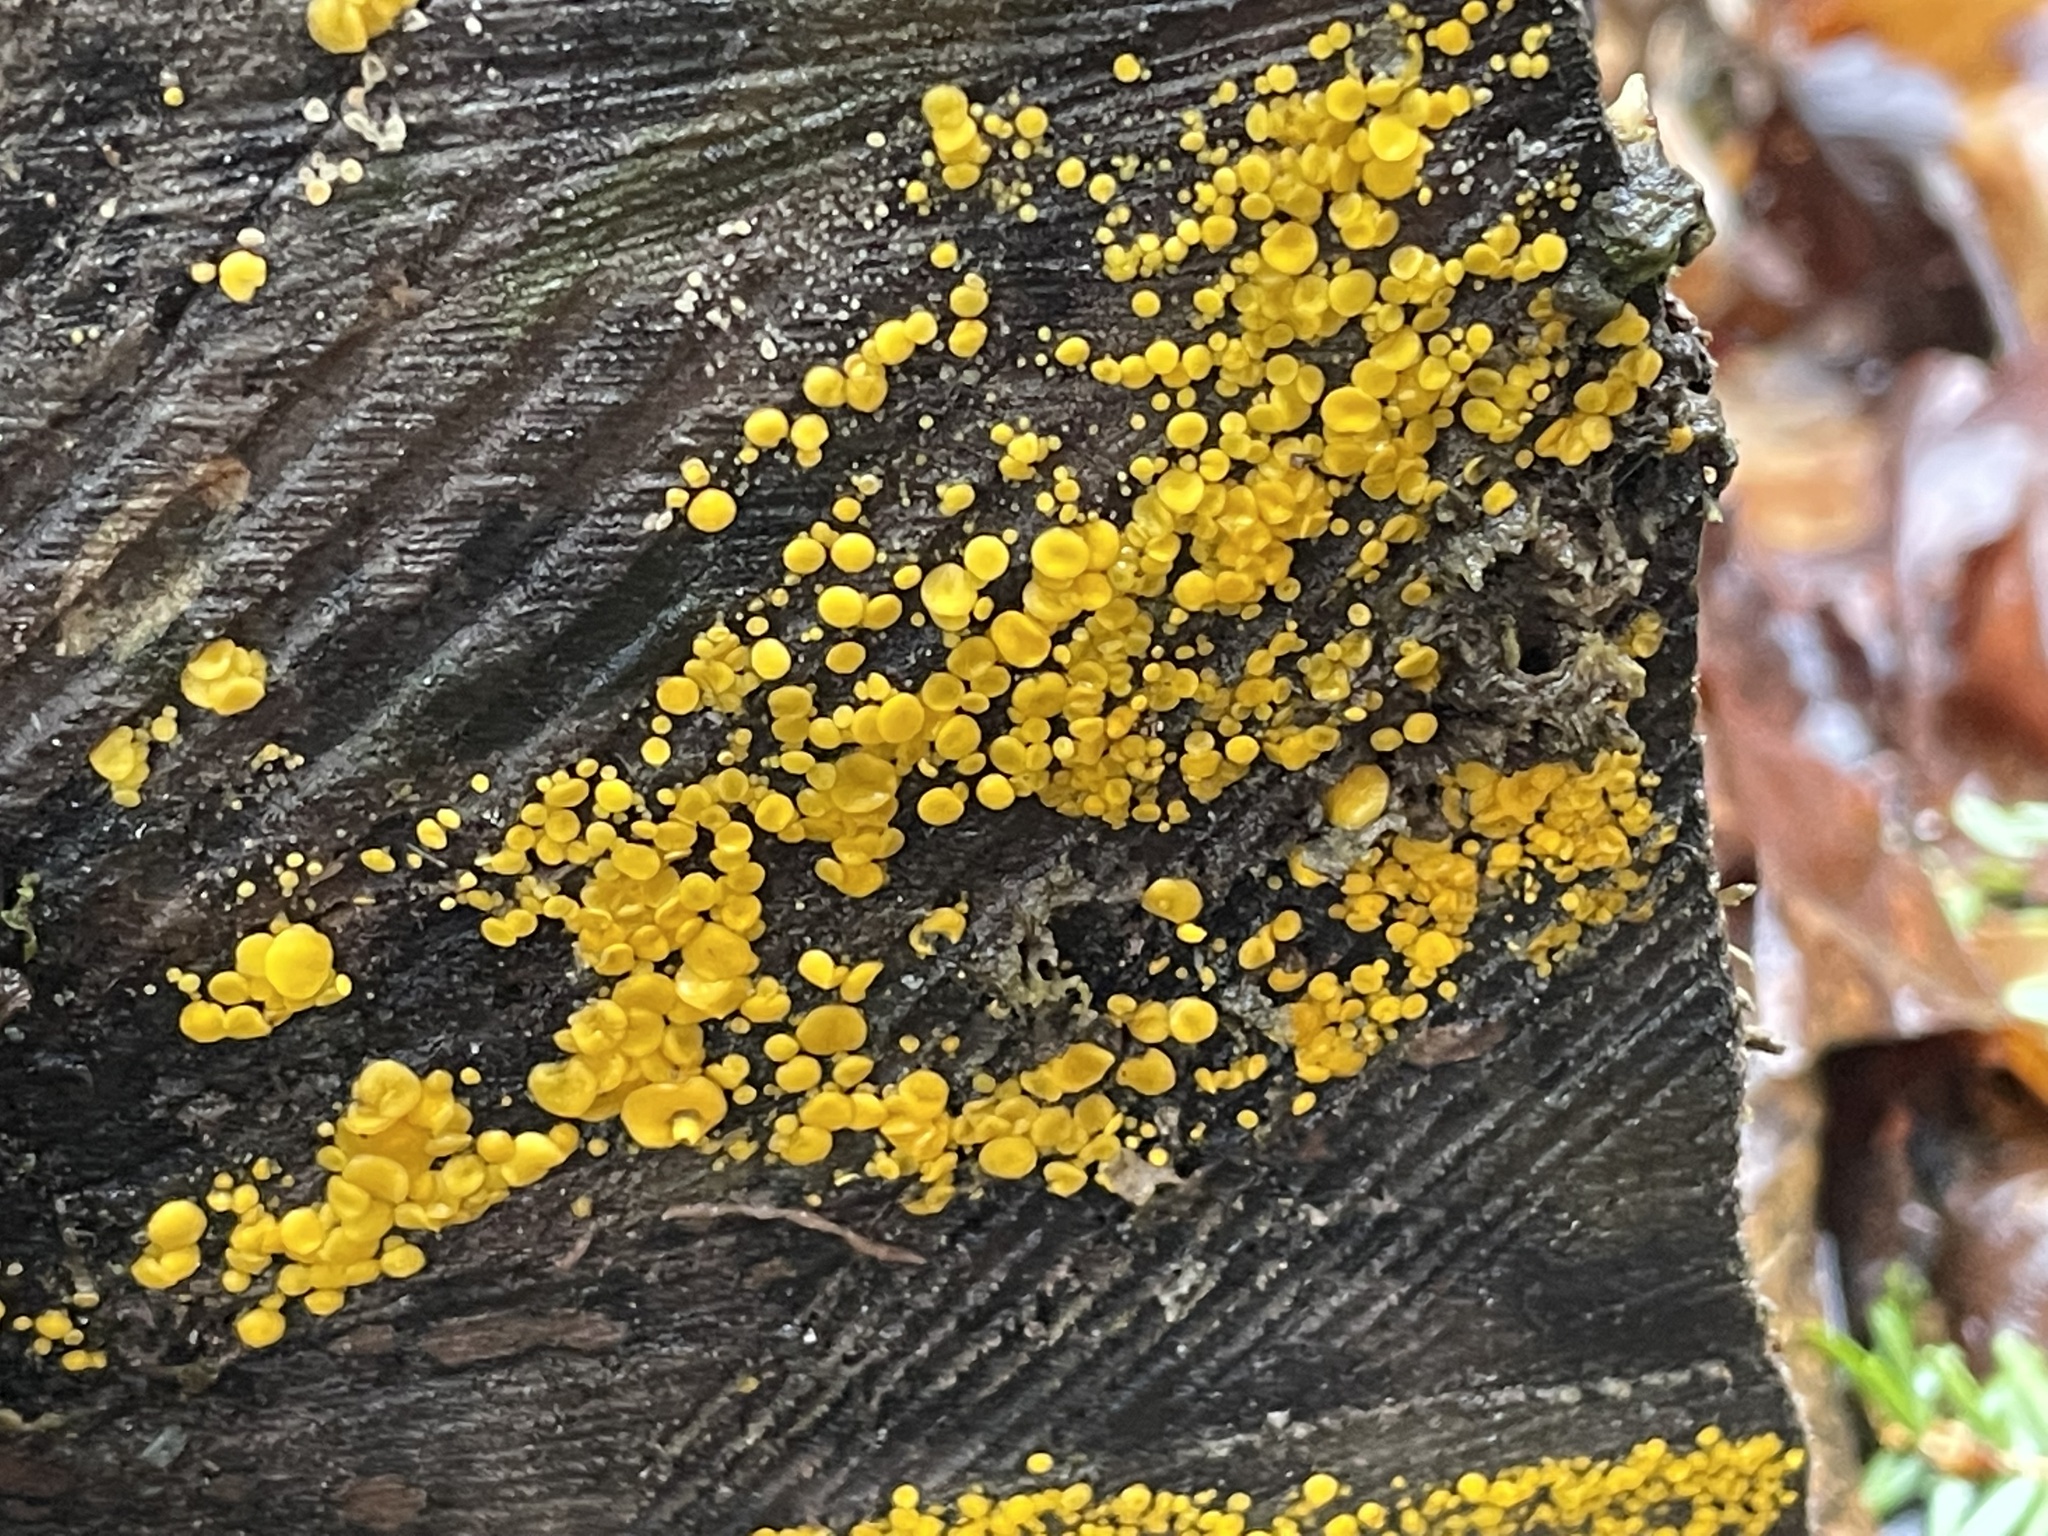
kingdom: Fungi
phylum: Ascomycota
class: Leotiomycetes
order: Helotiales
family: Pezizellaceae
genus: Calycina
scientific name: Calycina citrina
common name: Yellow fairy cups
